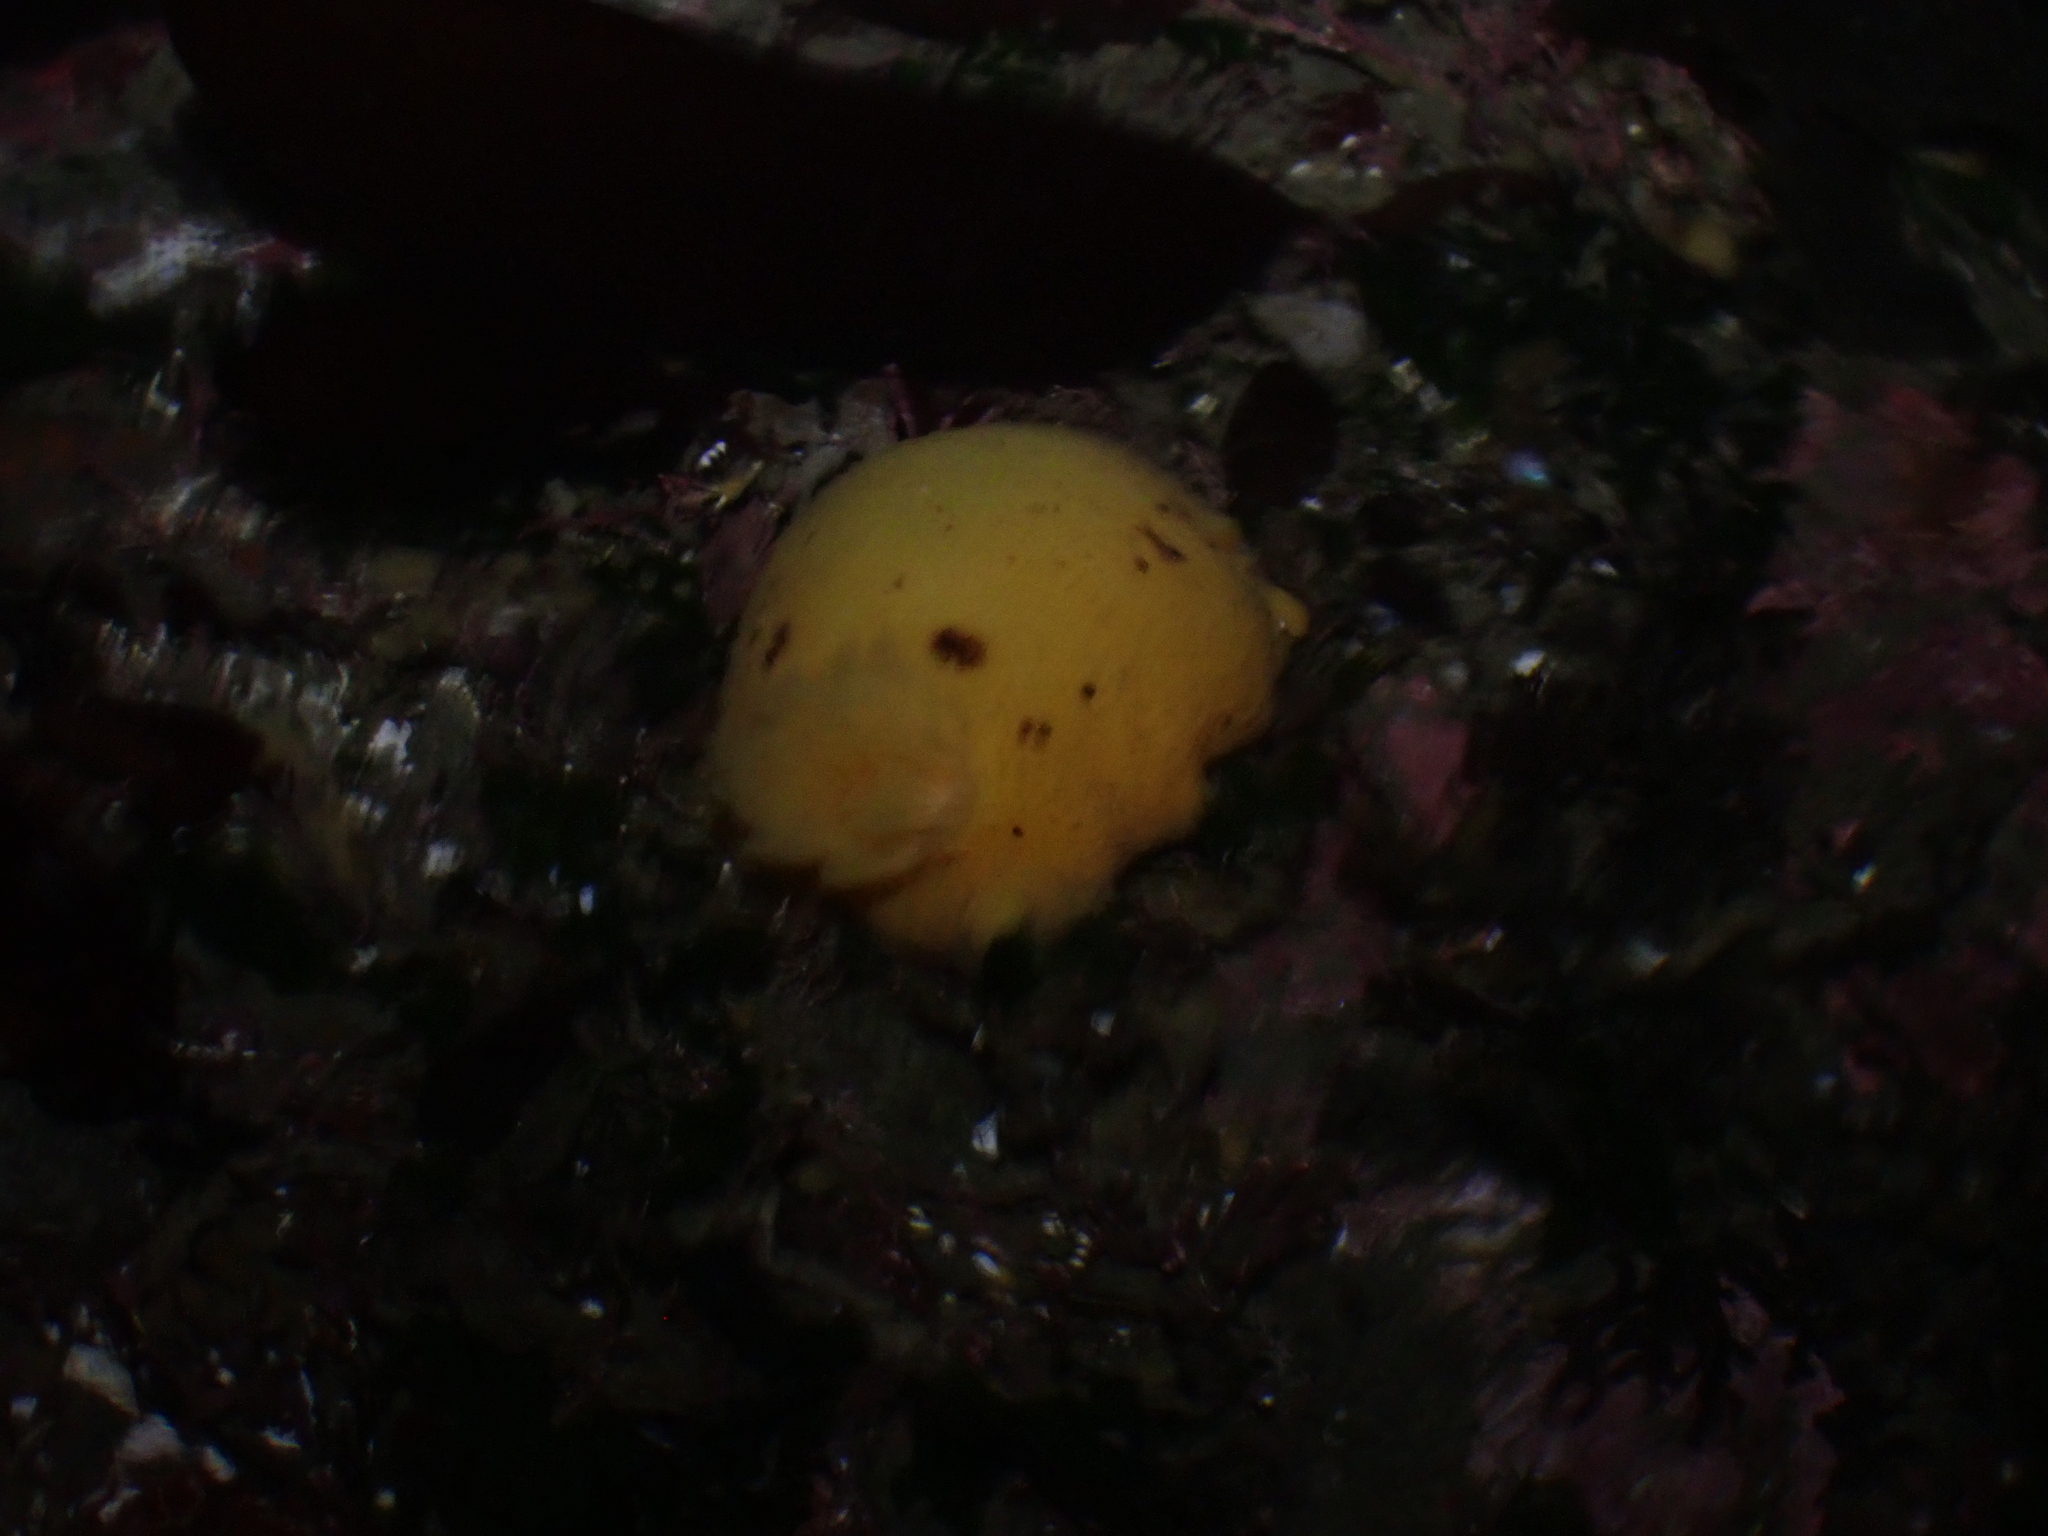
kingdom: Animalia
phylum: Mollusca
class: Gastropoda
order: Nudibranchia
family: Dorididae
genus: Doris
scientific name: Doris montereyensis
